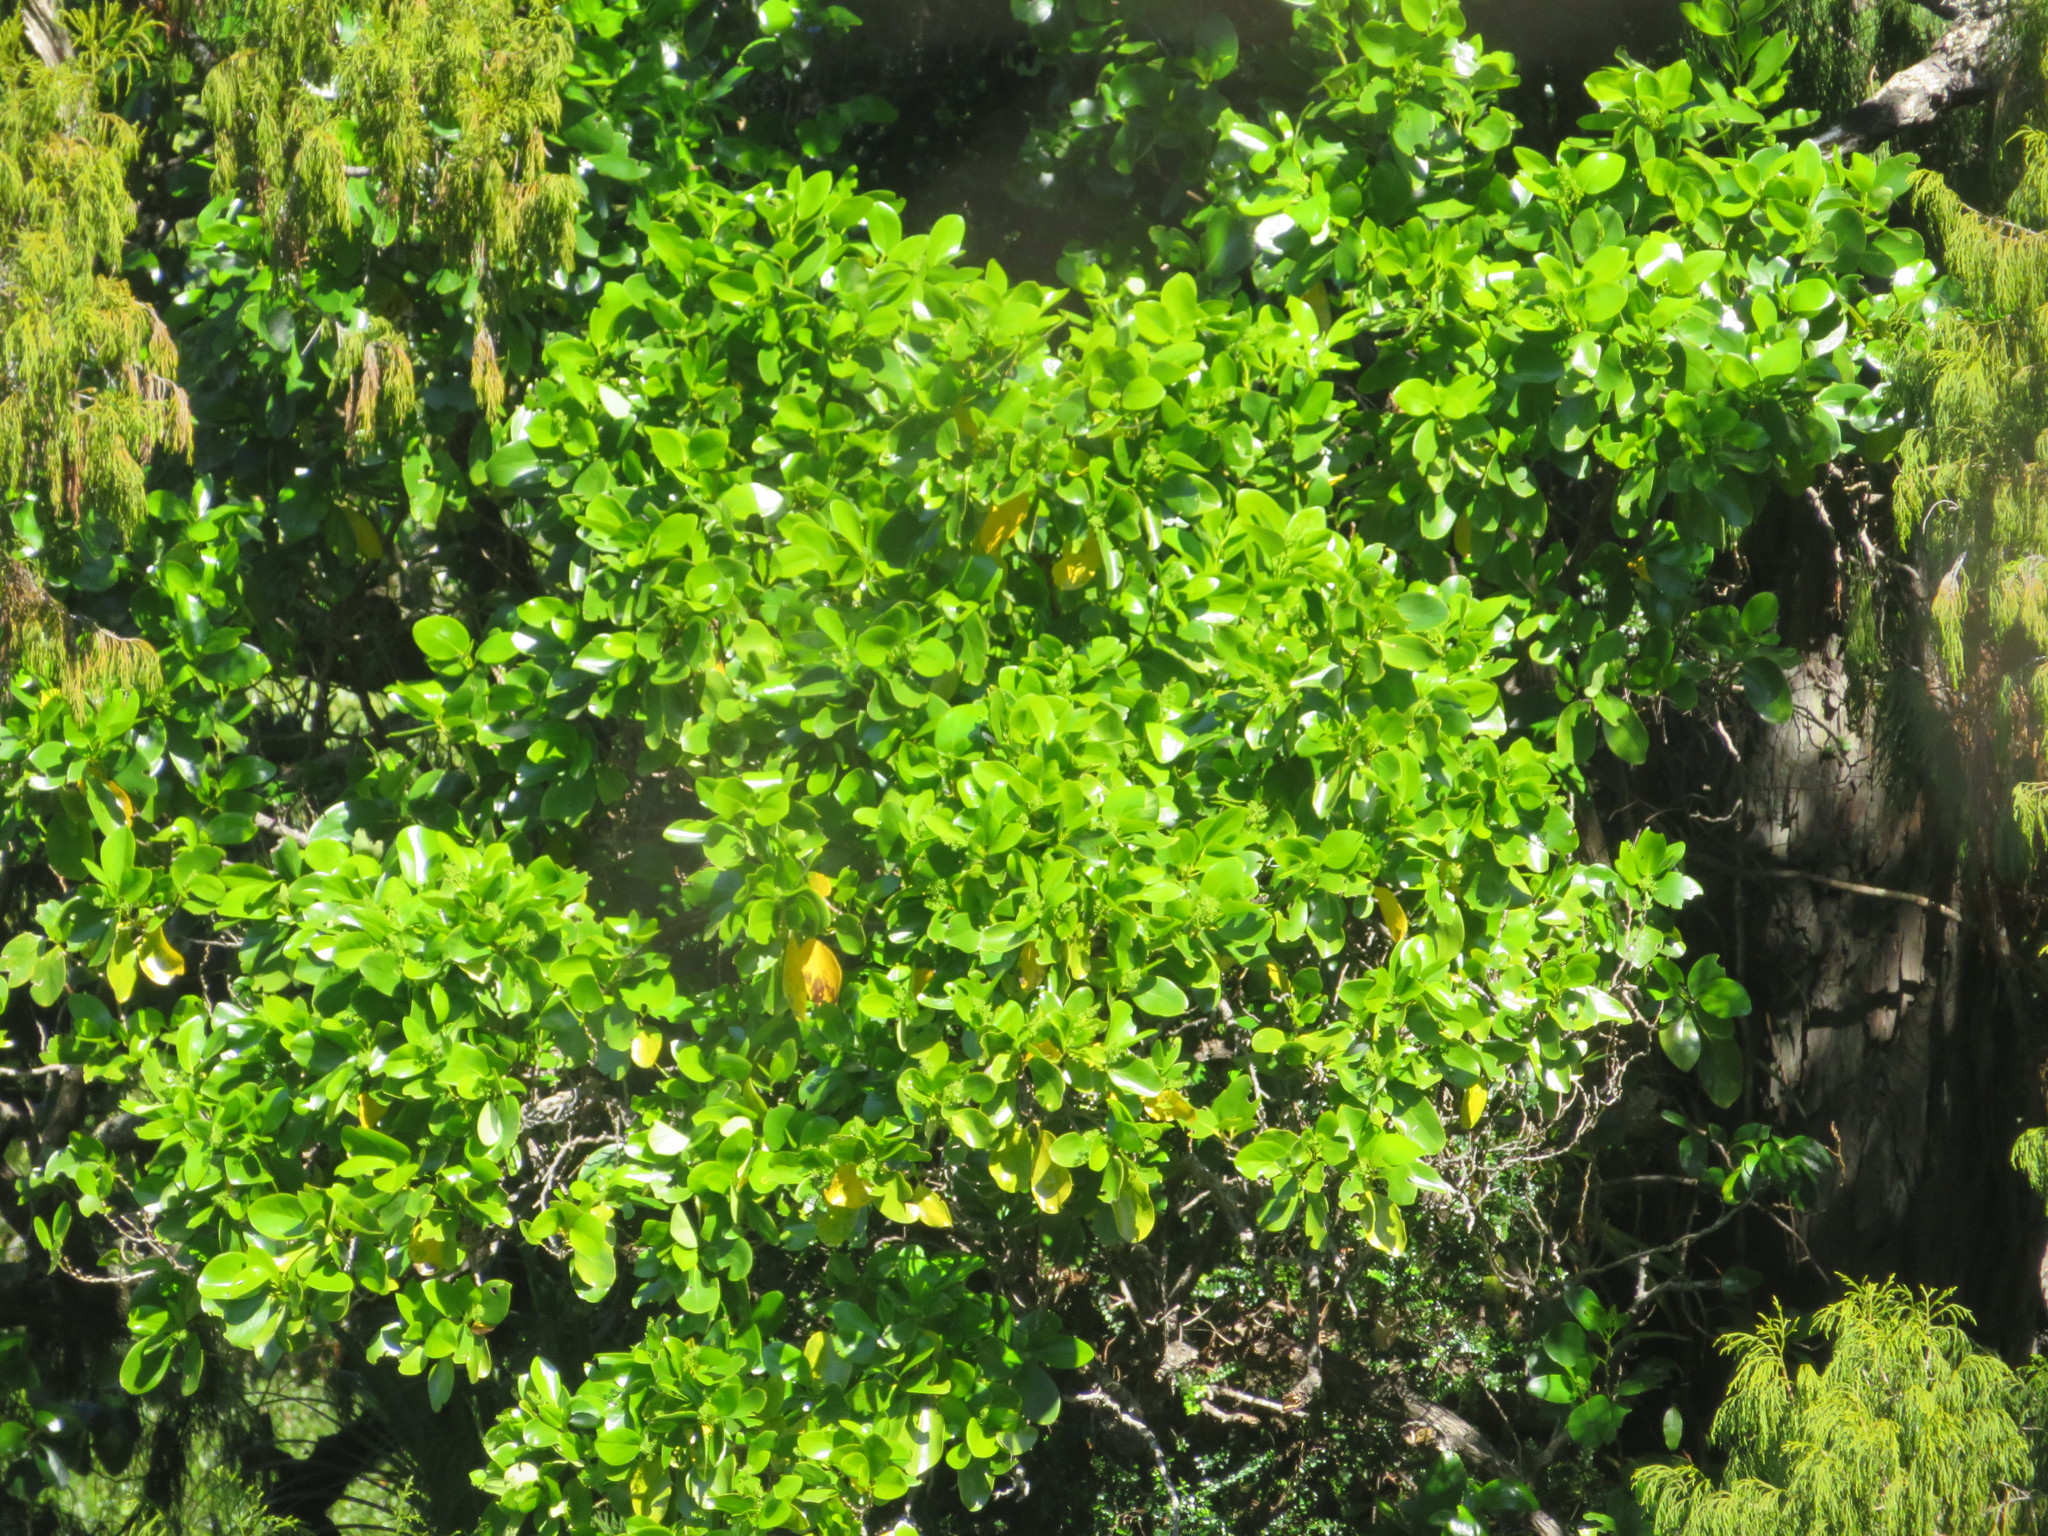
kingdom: Plantae
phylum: Tracheophyta
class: Magnoliopsida
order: Apiales
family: Griseliniaceae
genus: Griselinia
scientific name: Griselinia littoralis
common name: New zealand broadleaf
